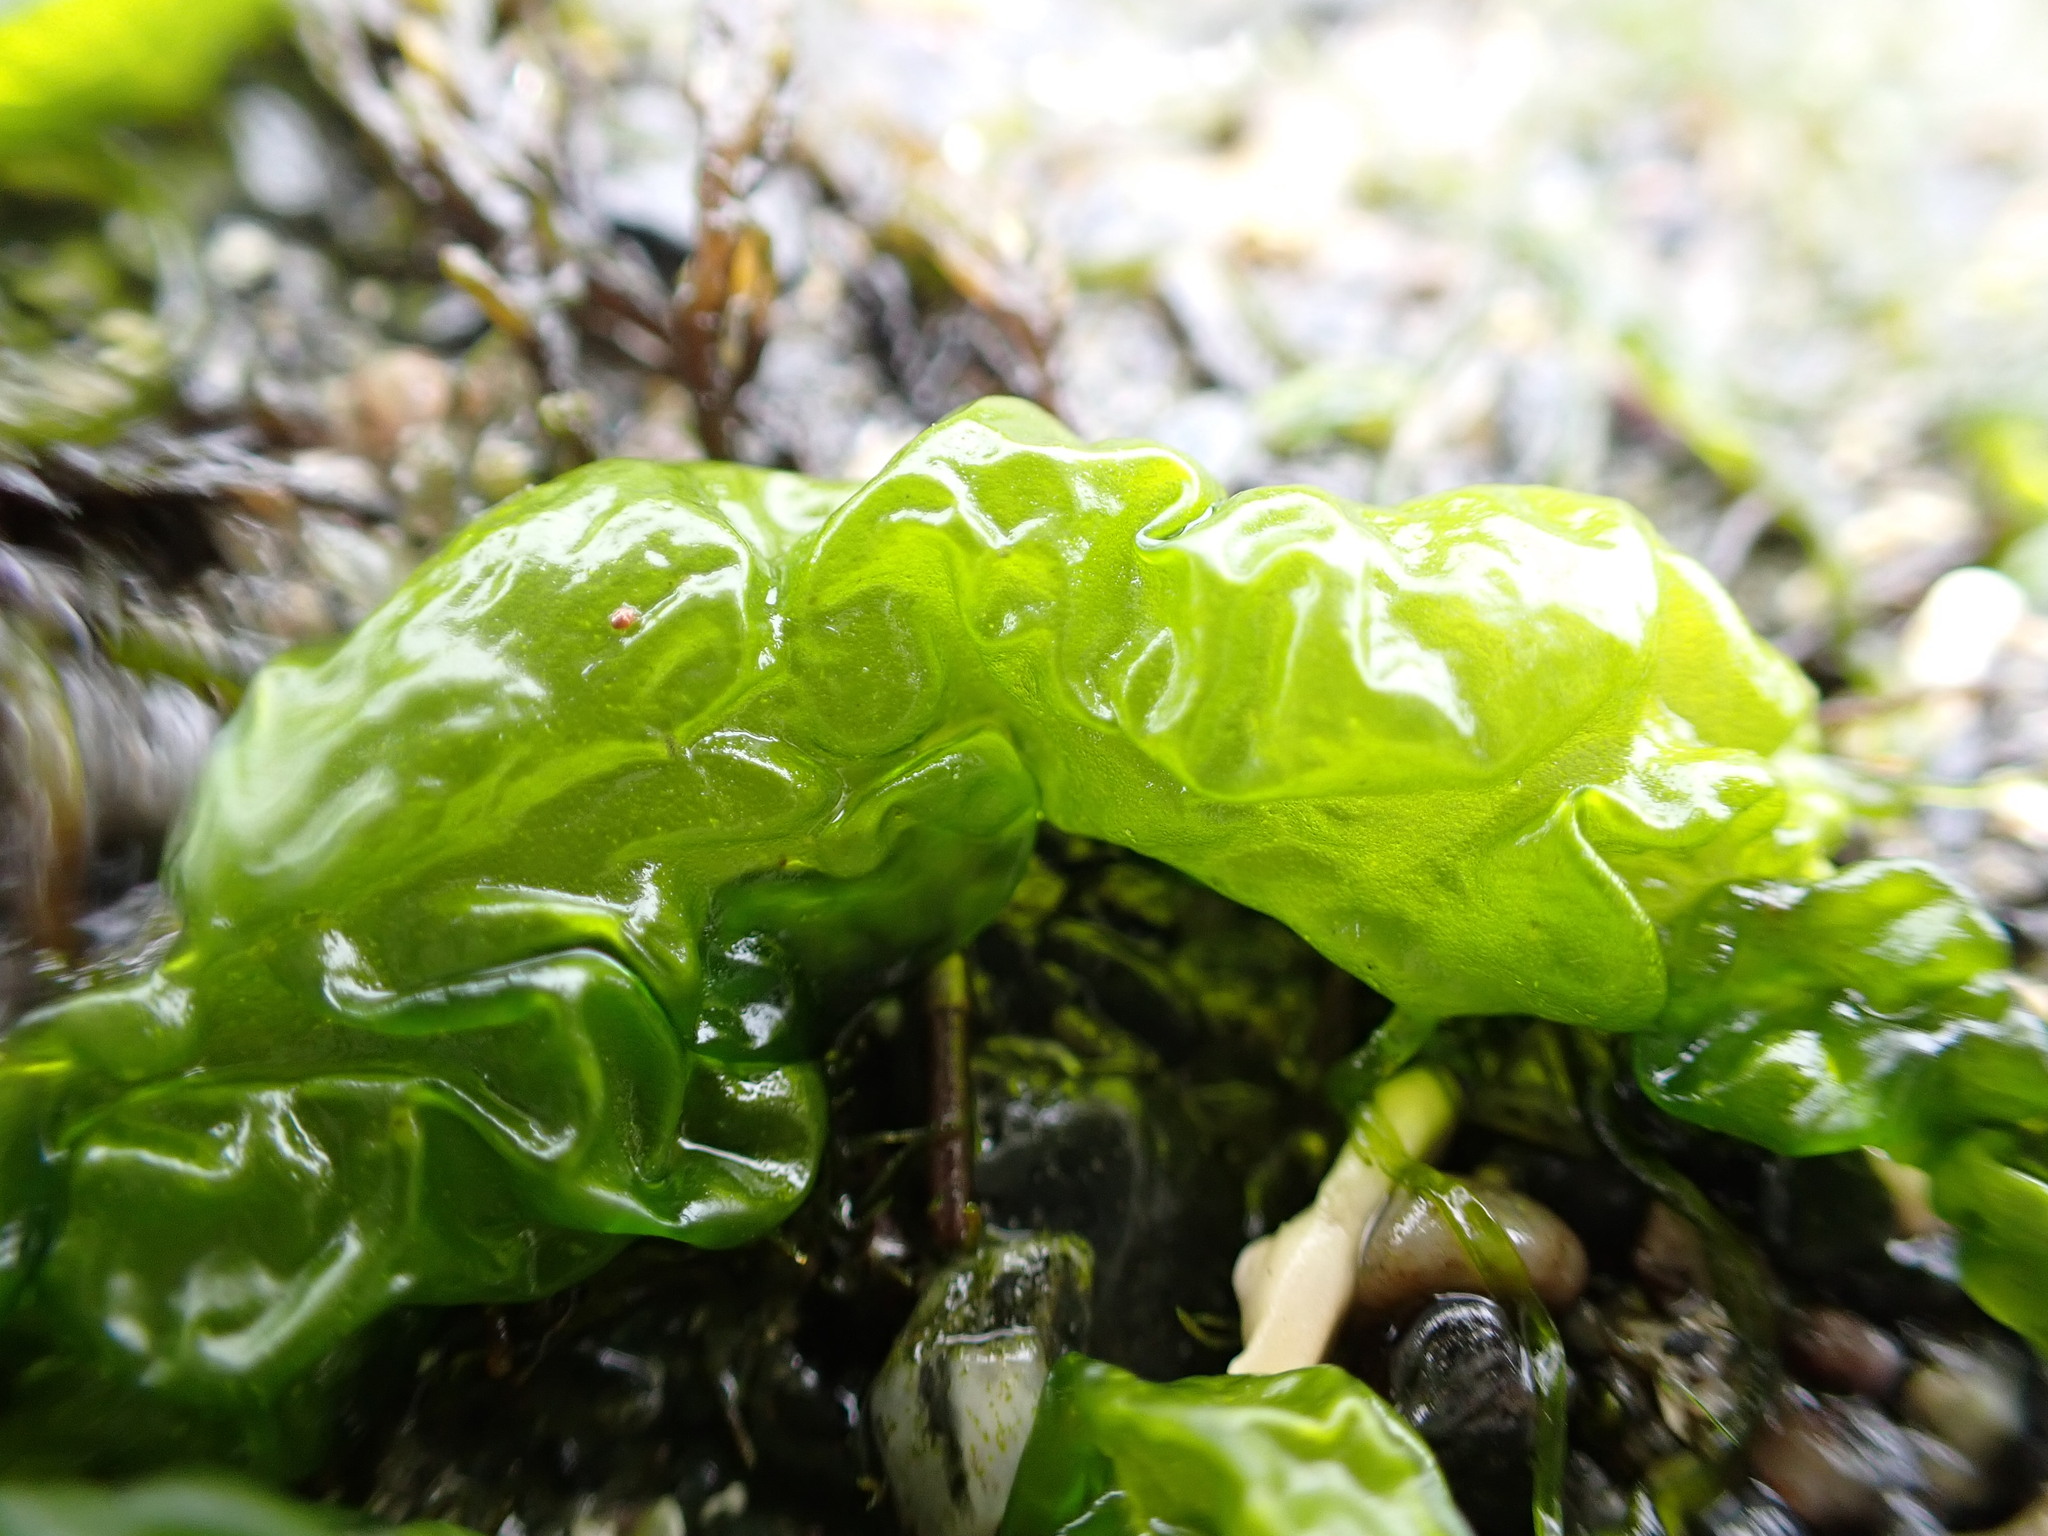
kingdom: Plantae
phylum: Chlorophyta
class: Ulvophyceae
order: Ulvales
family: Ulvaceae
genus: Ulva
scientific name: Ulva intestinalis
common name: Gut weed
